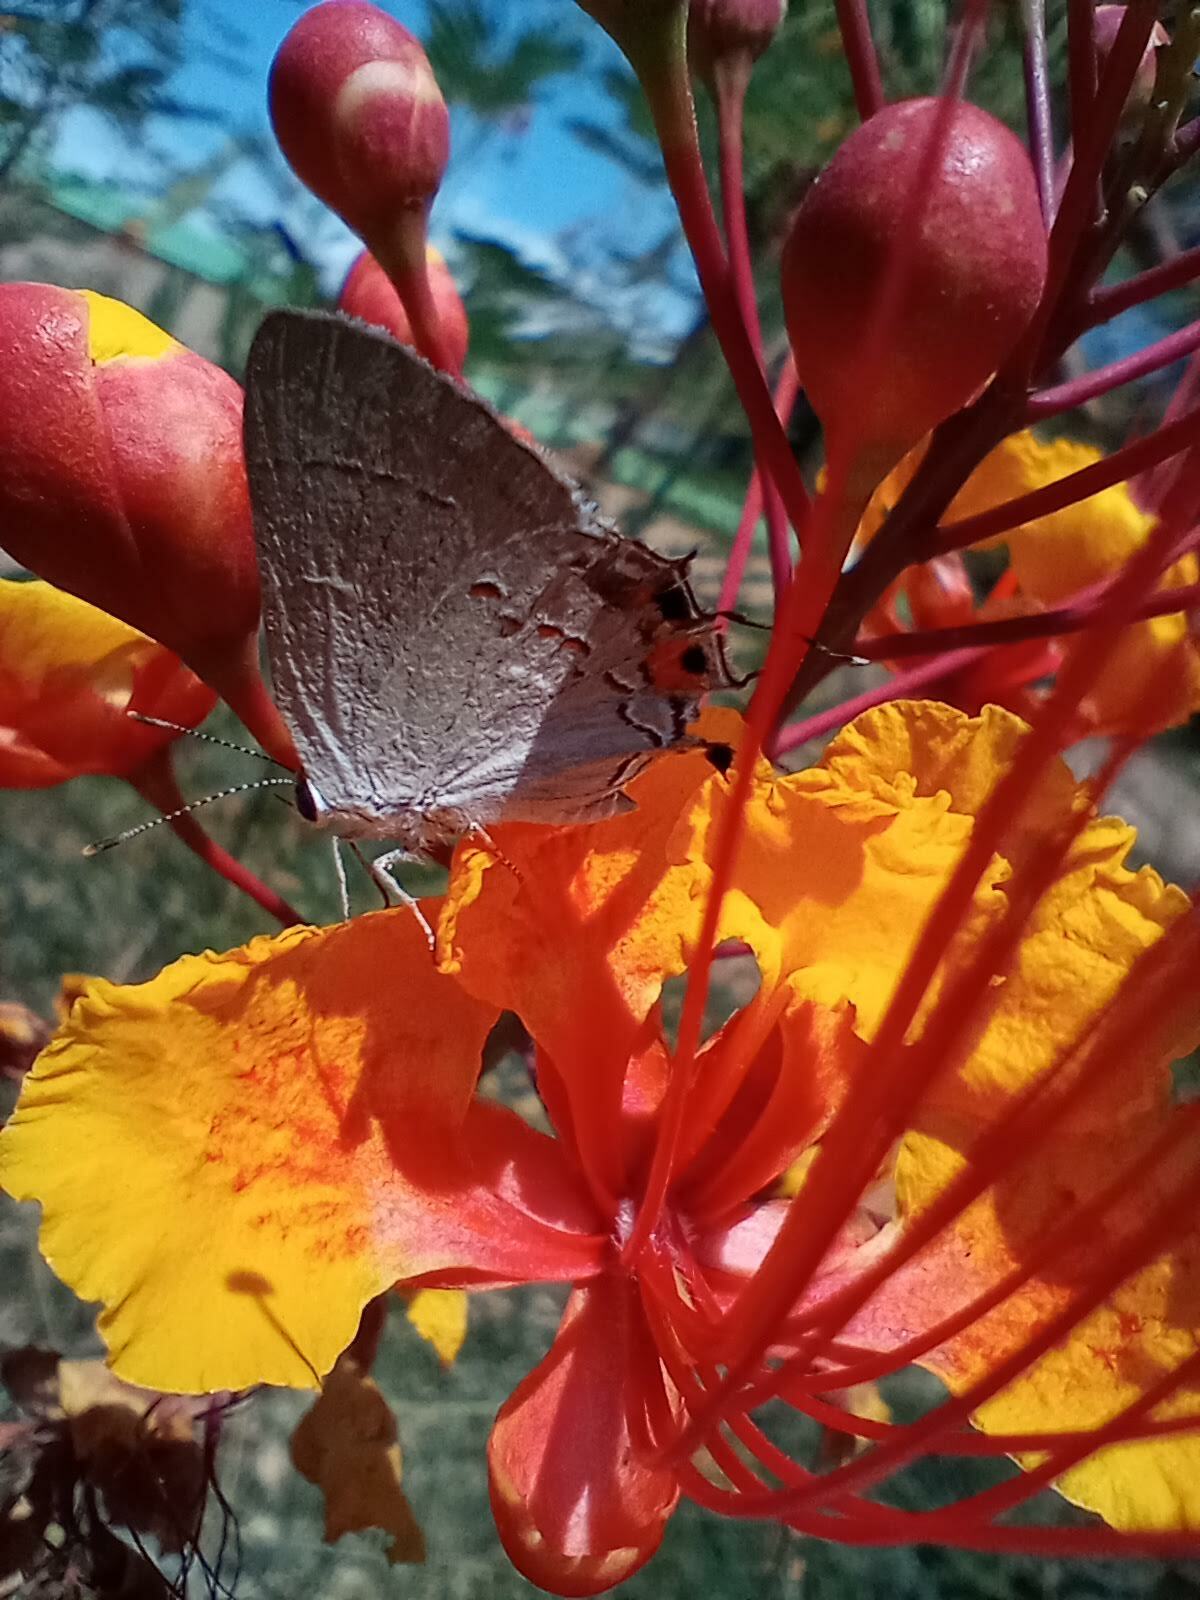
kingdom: Animalia
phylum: Arthropoda
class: Insecta
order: Lepidoptera
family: Lycaenidae
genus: Strymon
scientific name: Strymon melinus
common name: Gray hairstreak
